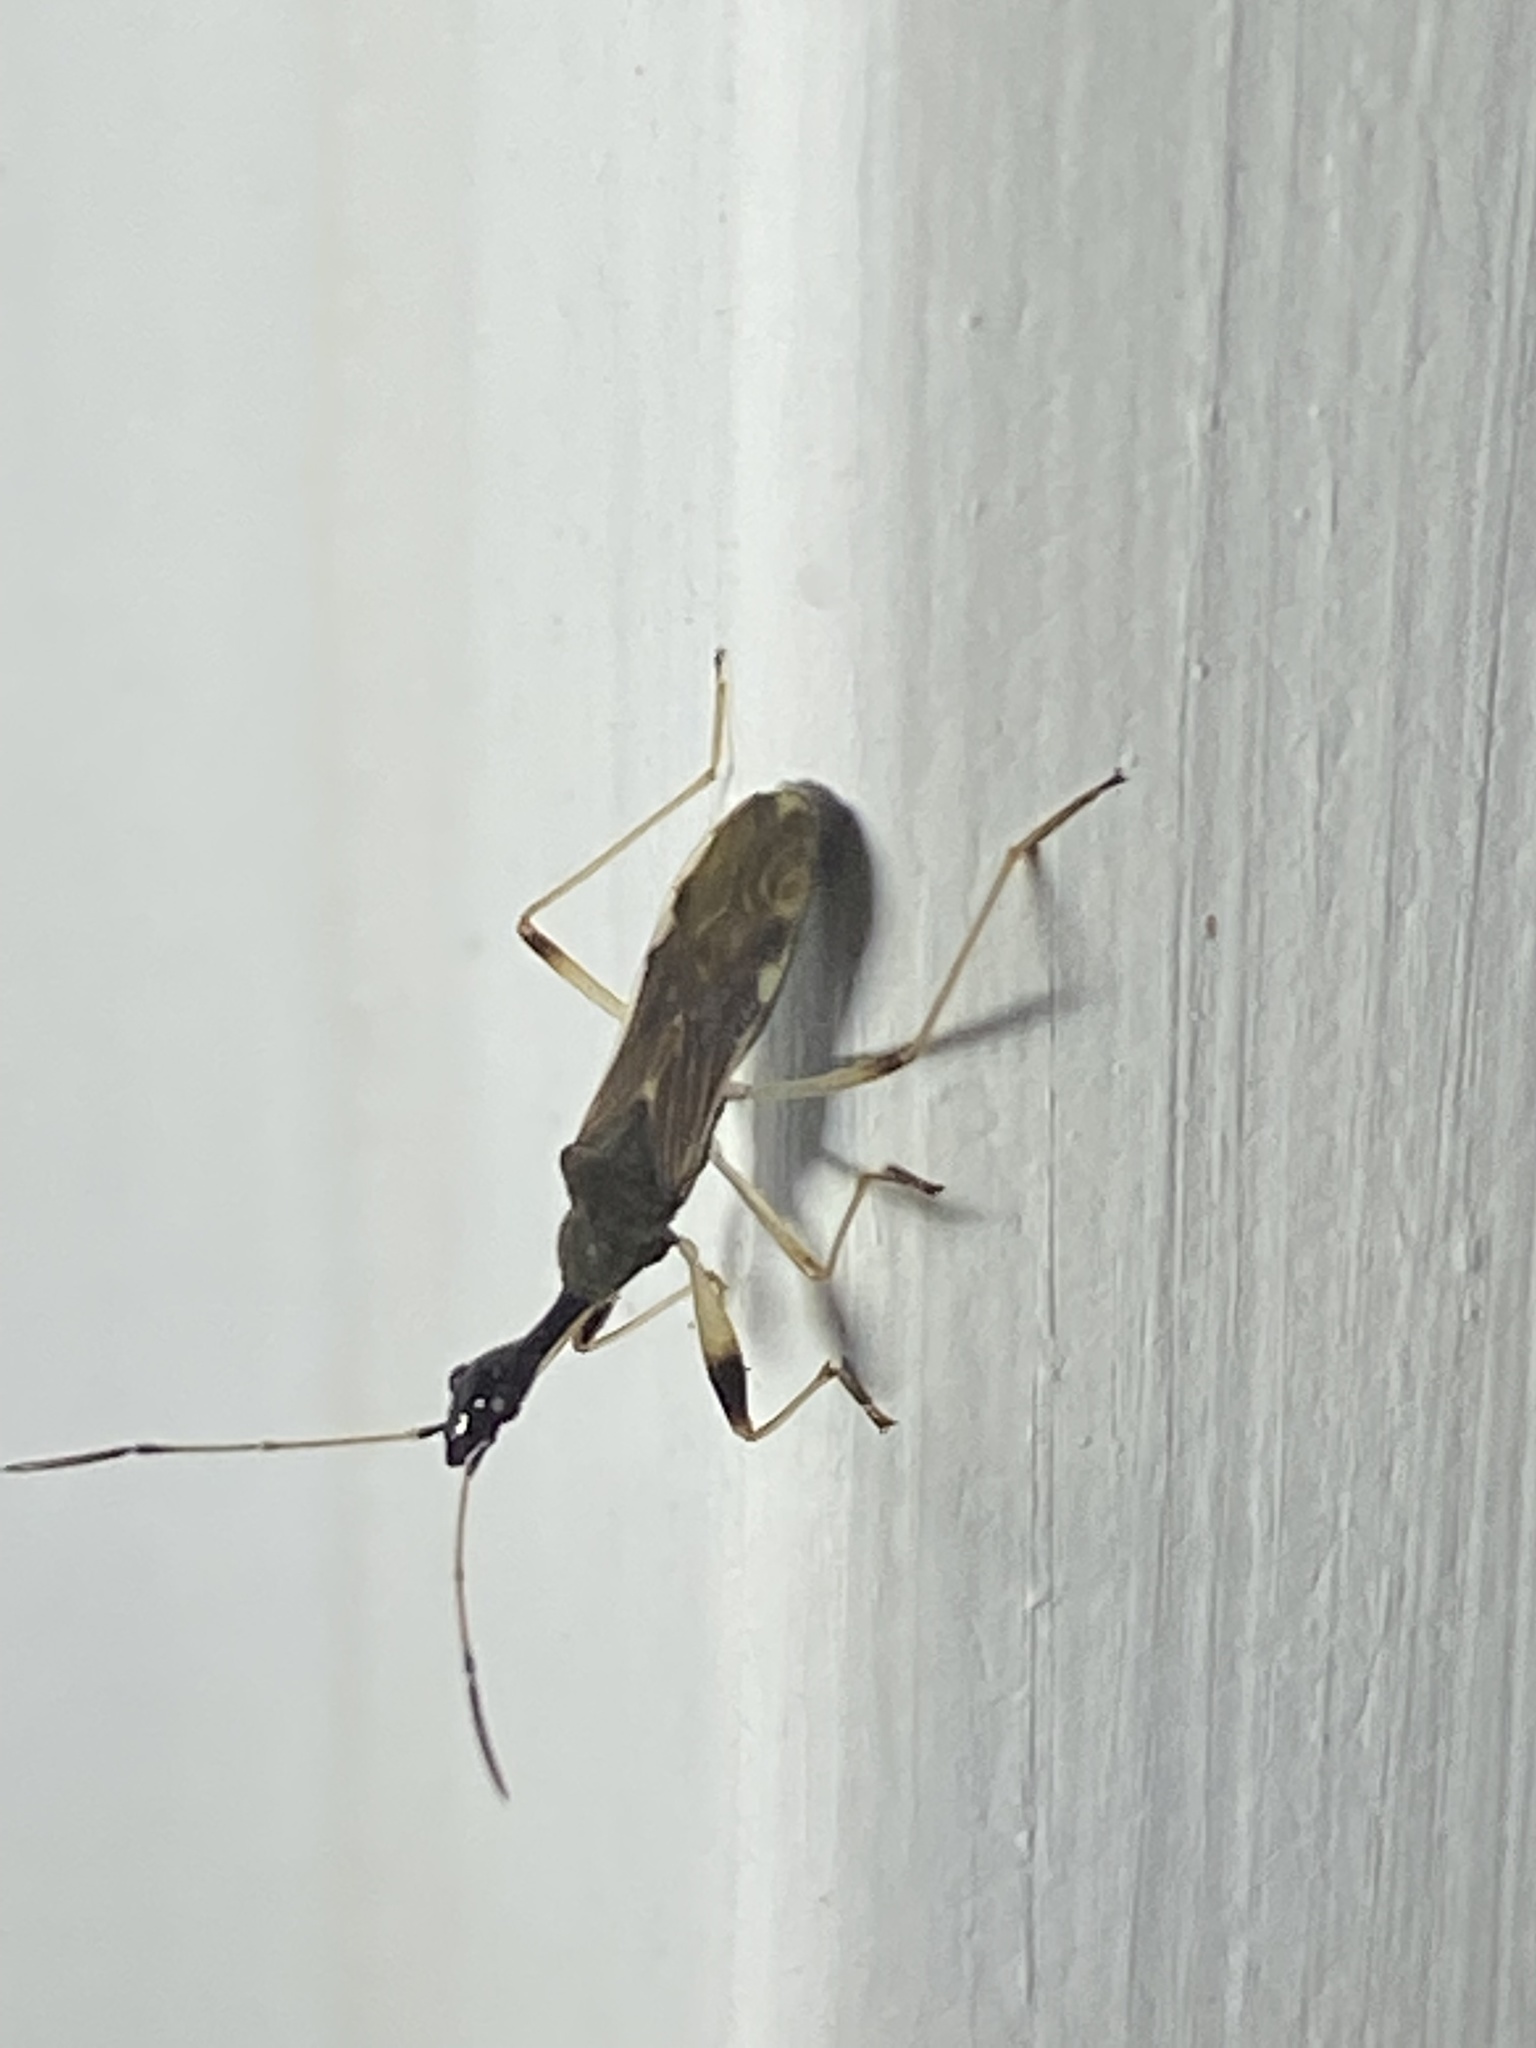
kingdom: Animalia
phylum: Arthropoda
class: Insecta
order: Hemiptera
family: Rhyparochromidae
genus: Myodocha
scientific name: Myodocha serripes
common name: Long-necked seed bug
